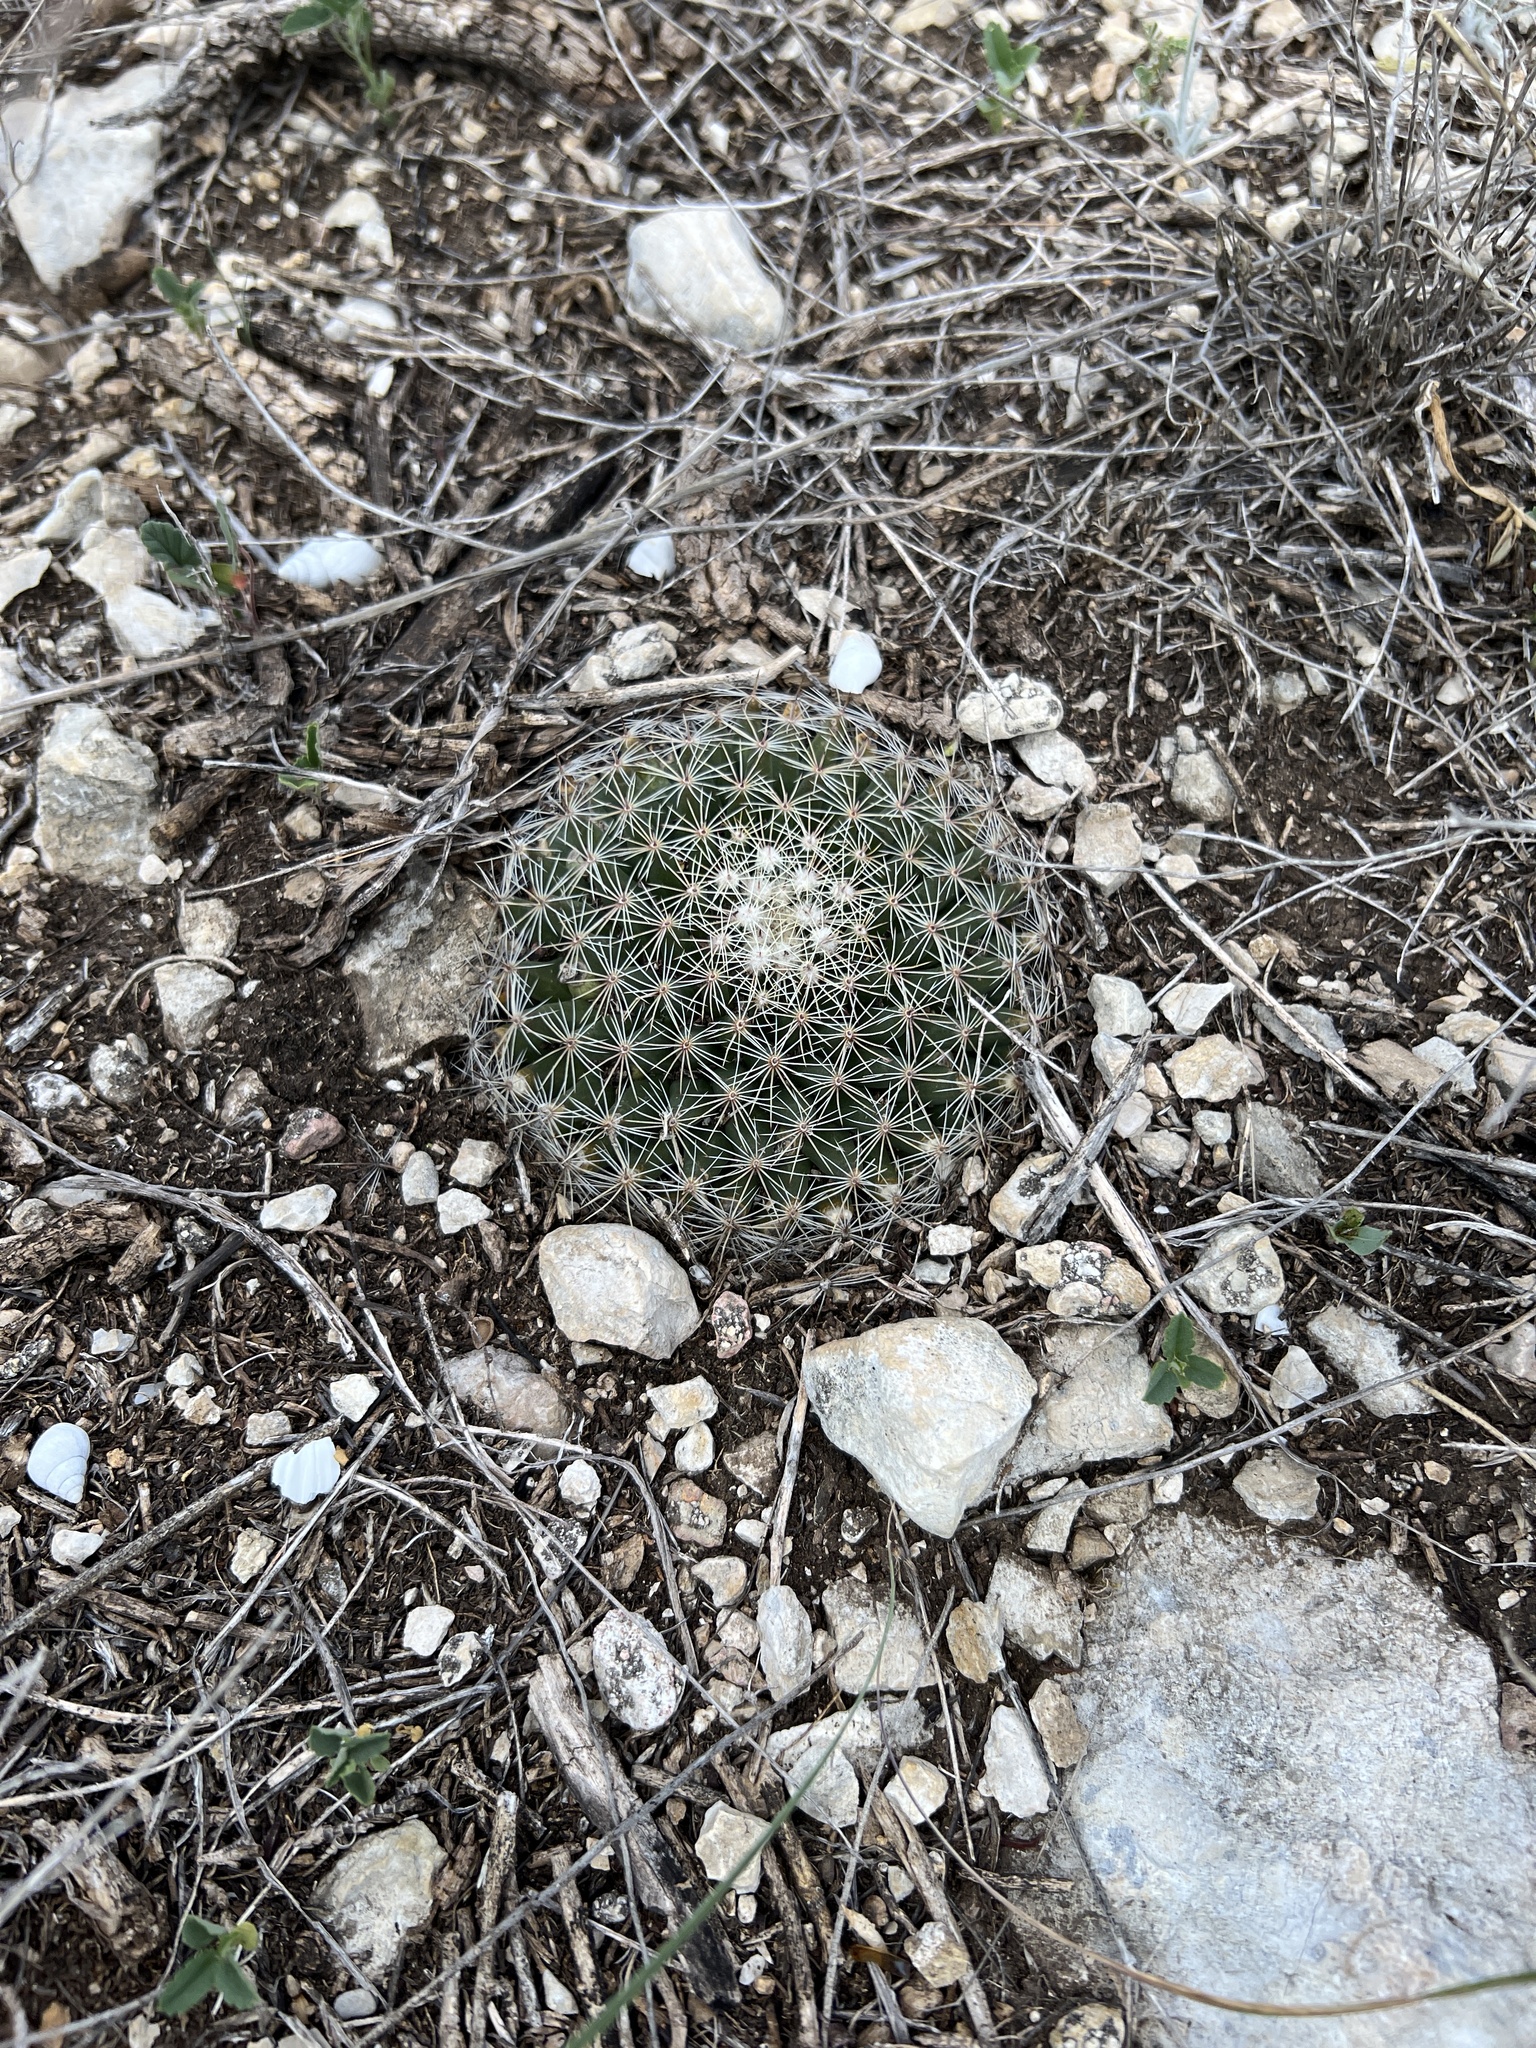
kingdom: Plantae
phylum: Tracheophyta
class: Magnoliopsida
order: Caryophyllales
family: Cactaceae
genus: Mammillaria
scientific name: Mammillaria heyderi
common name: Little nipple cactus
